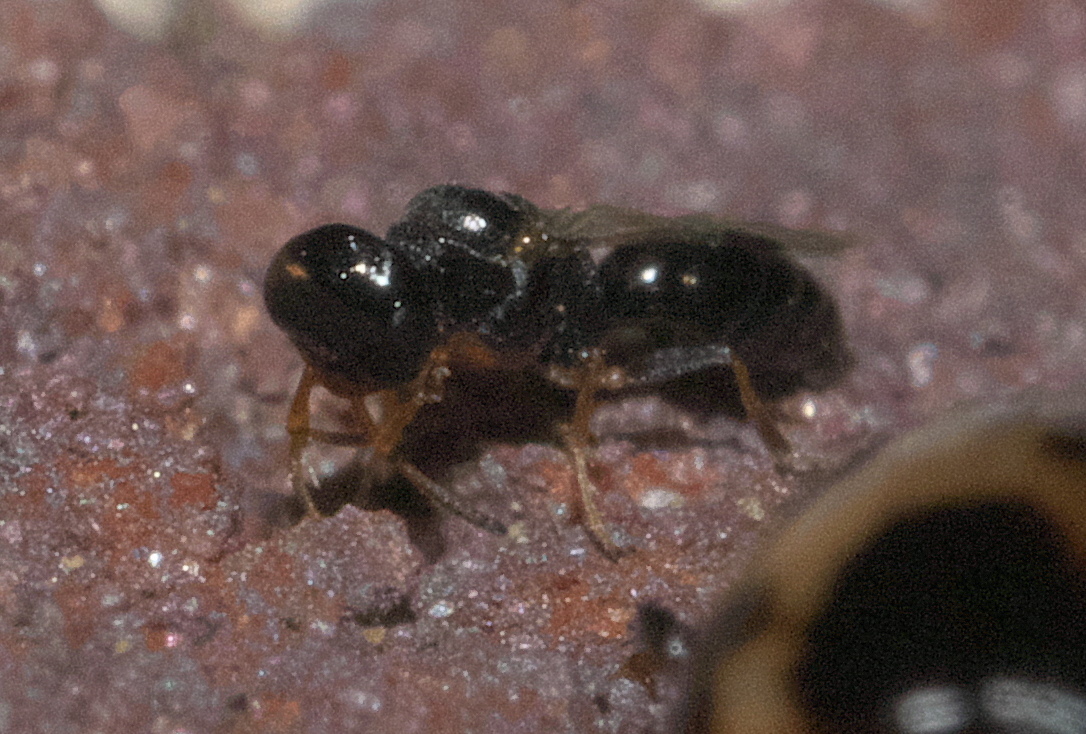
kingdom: Animalia
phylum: Arthropoda
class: Insecta
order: Hymenoptera
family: Crabronidae
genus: Spilomena
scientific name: Spilomena
